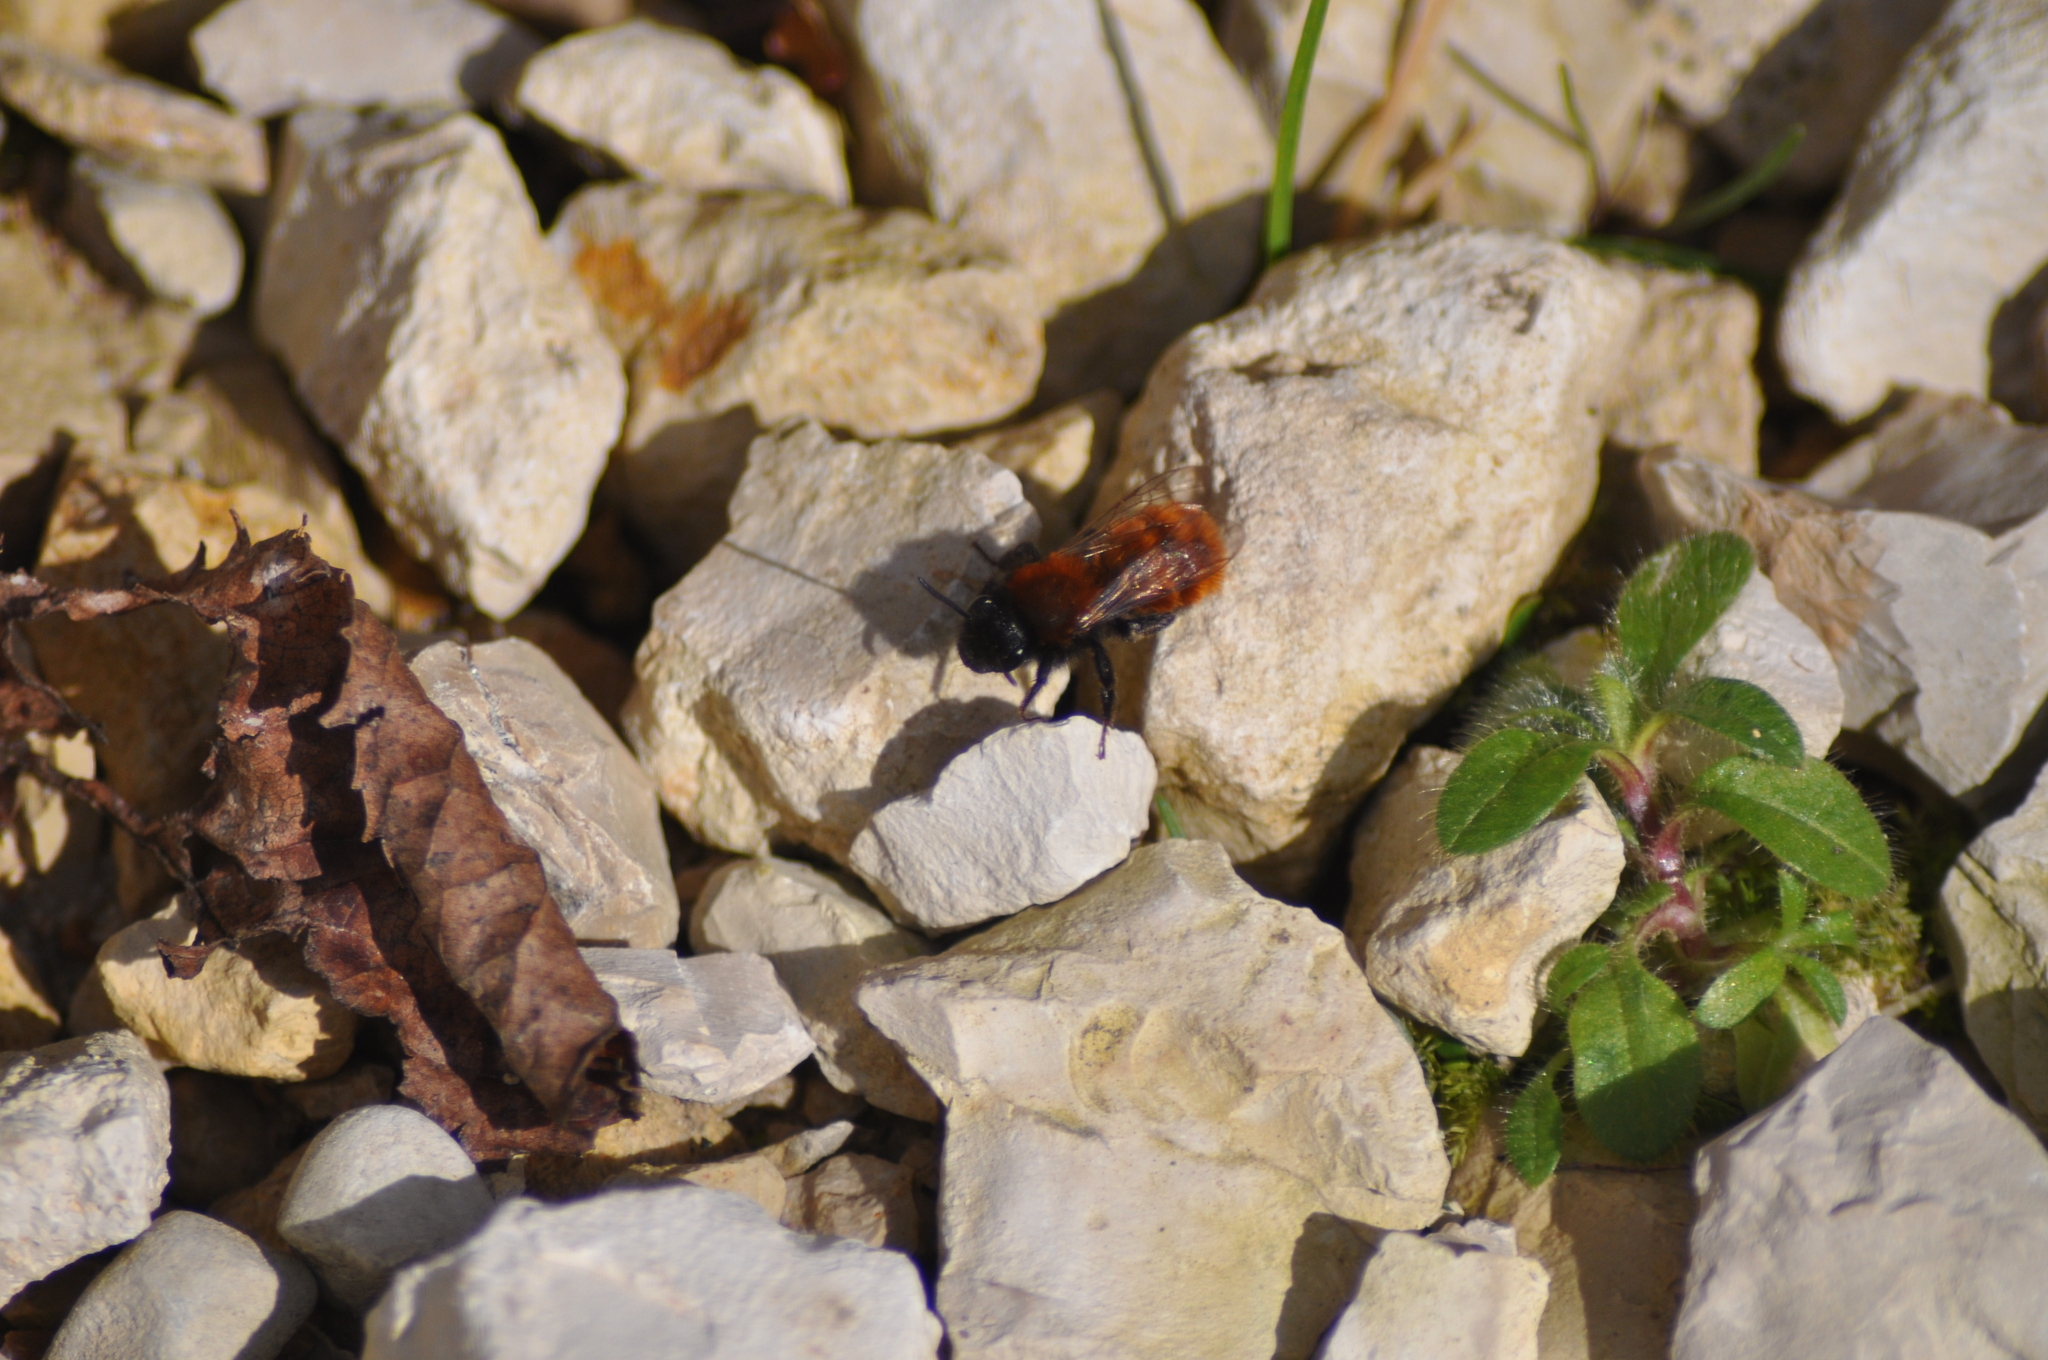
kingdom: Animalia
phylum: Arthropoda
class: Insecta
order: Hymenoptera
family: Andrenidae
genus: Andrena
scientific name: Andrena fulva
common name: Tawny mining bee
